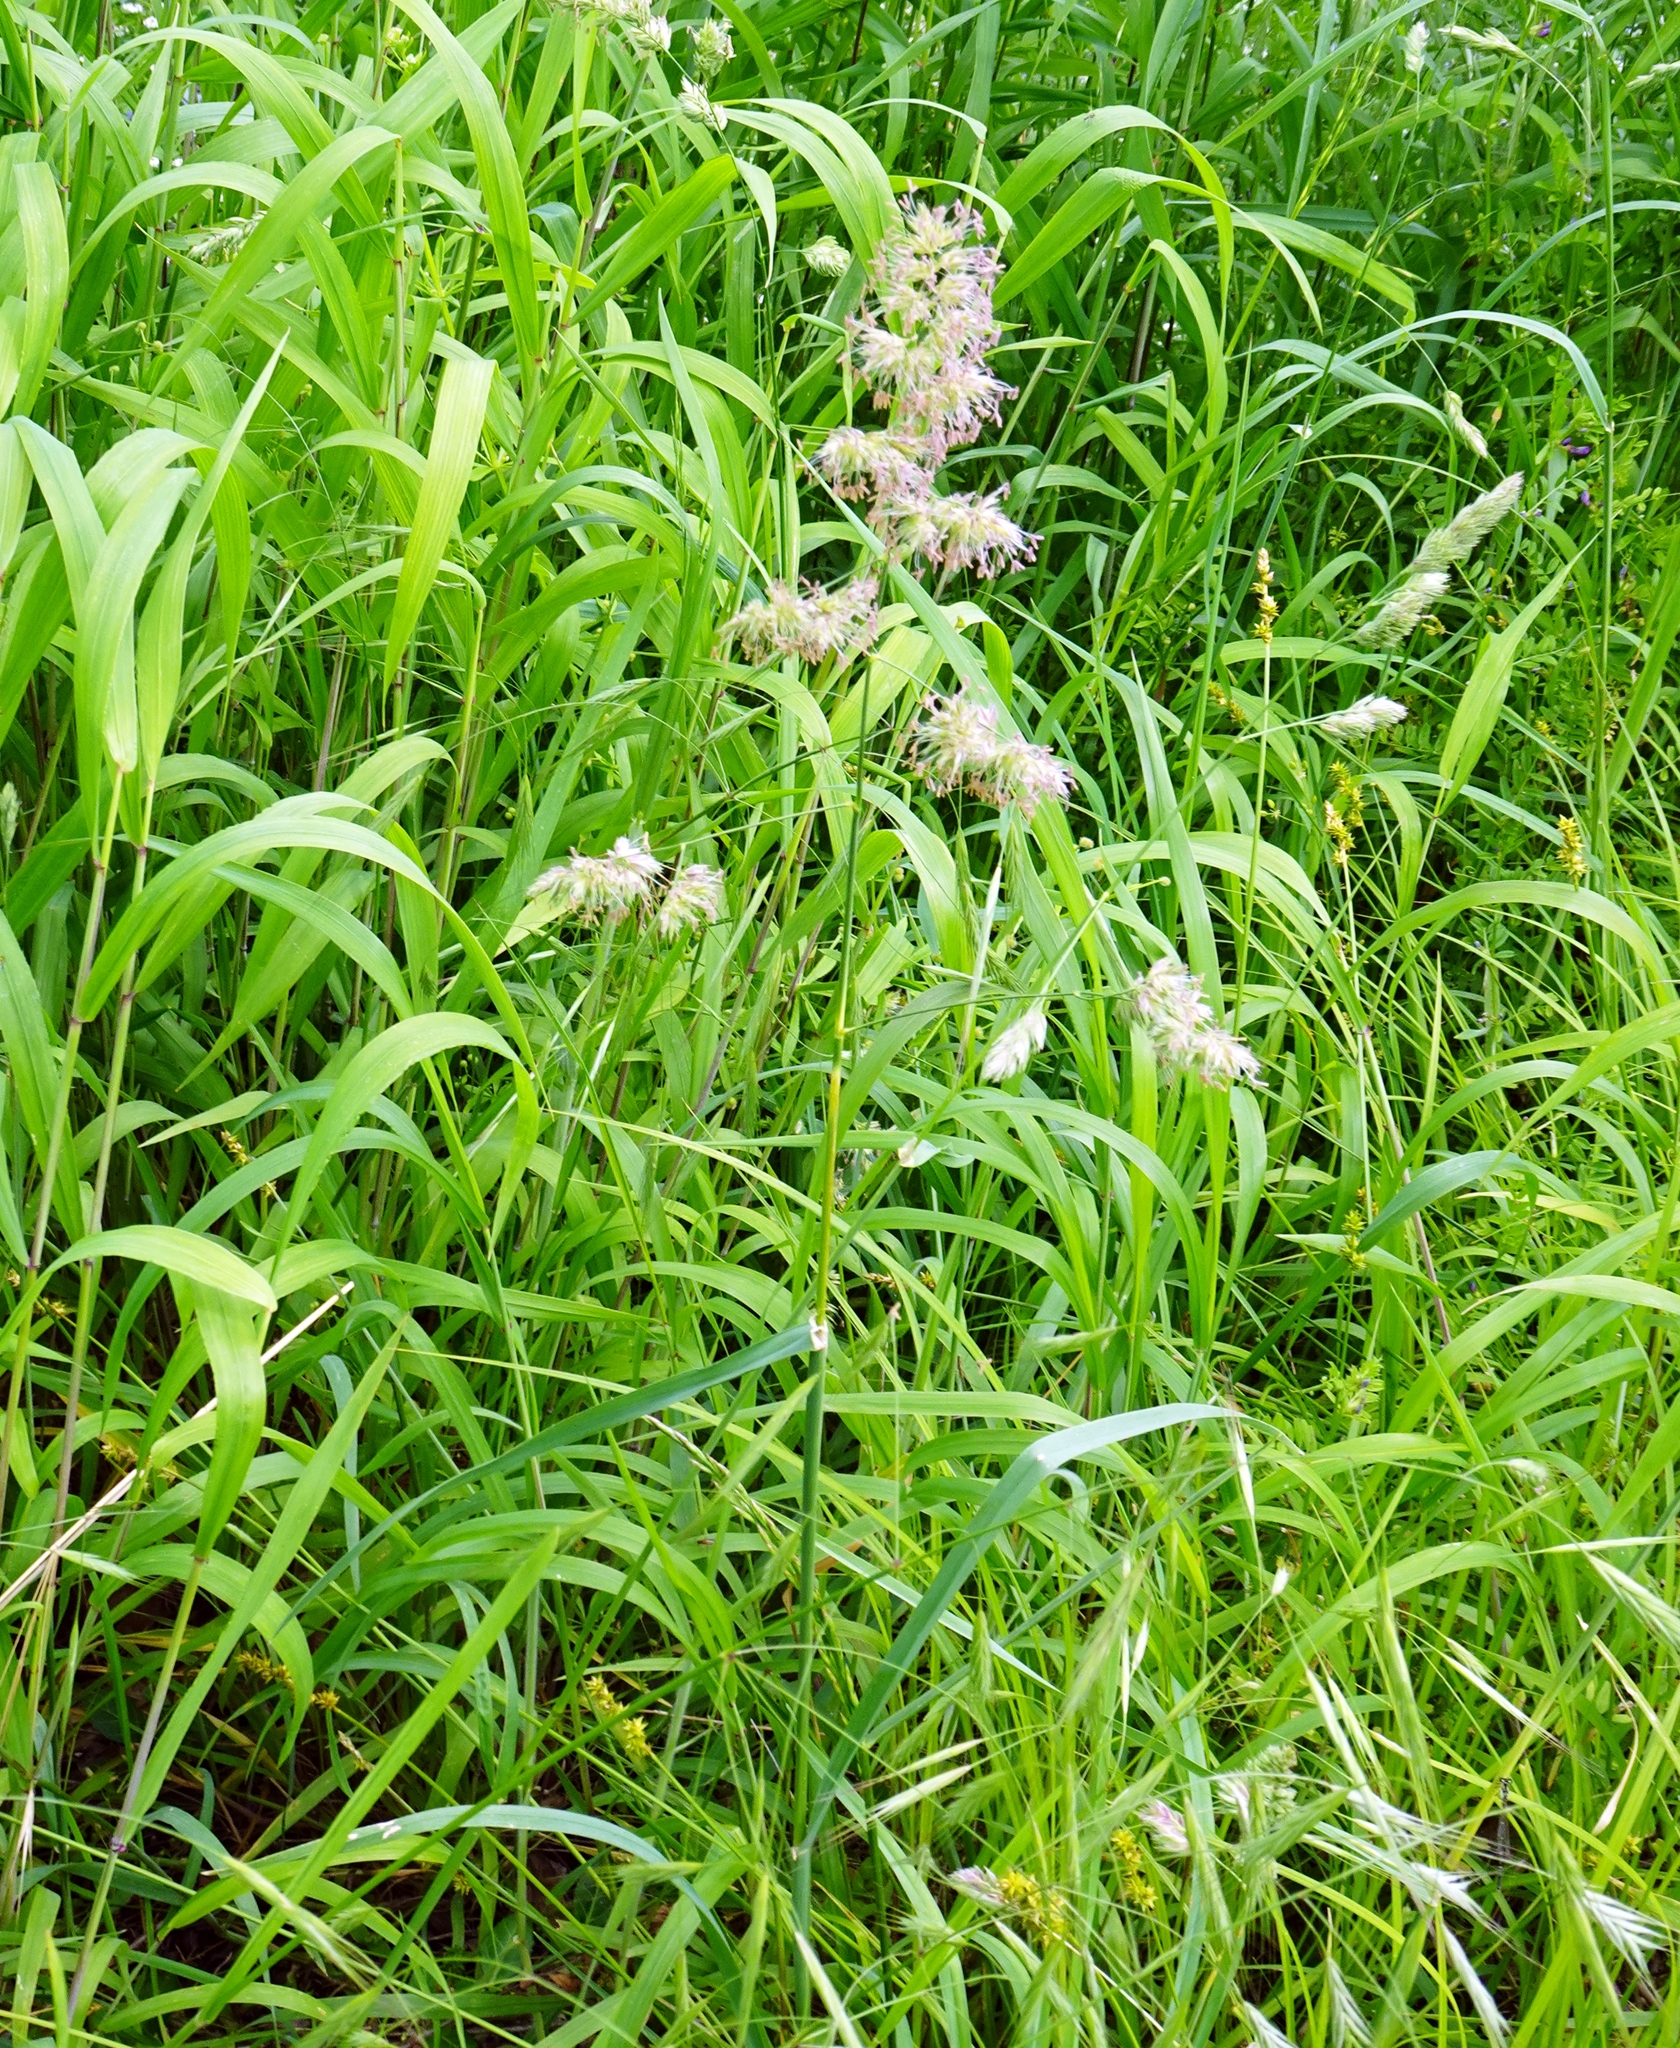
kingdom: Plantae
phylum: Tracheophyta
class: Liliopsida
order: Poales
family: Poaceae
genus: Dactylis
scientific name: Dactylis glomerata
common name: Orchardgrass
